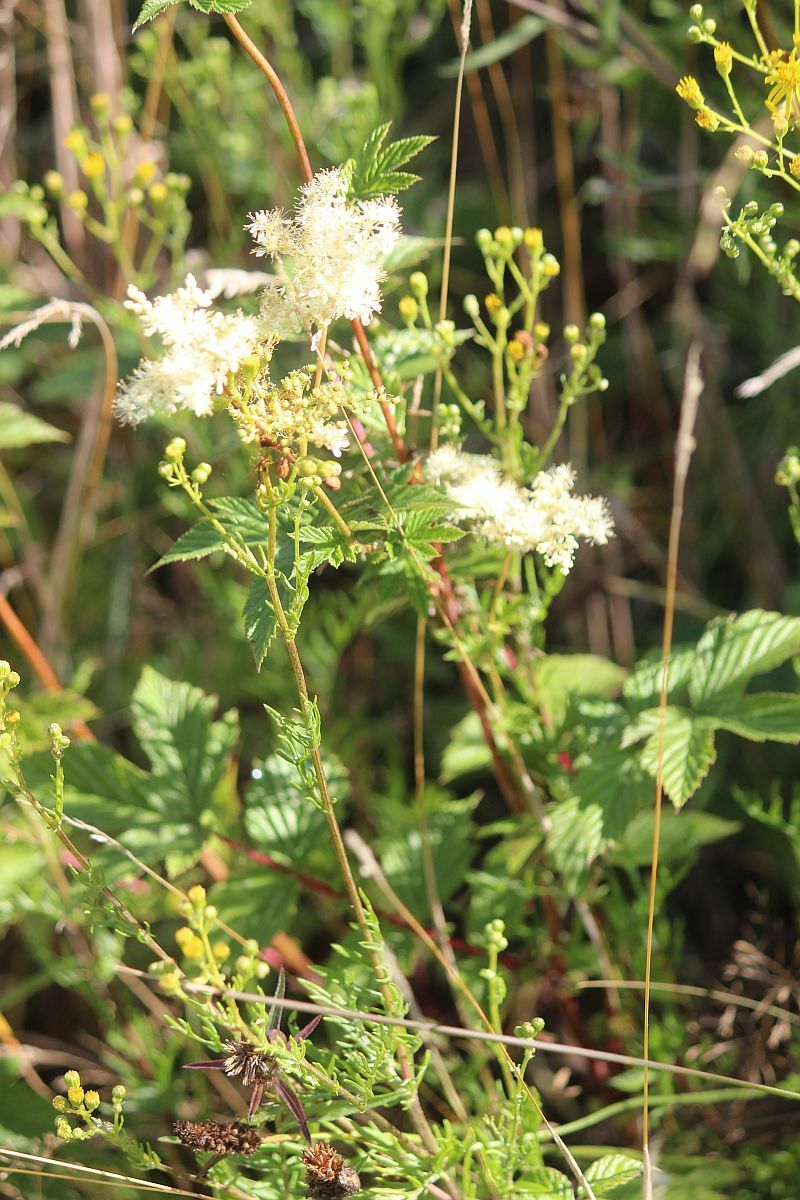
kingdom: Plantae
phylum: Tracheophyta
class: Magnoliopsida
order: Rosales
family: Rosaceae
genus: Filipendula
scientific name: Filipendula ulmaria
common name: Meadowsweet
